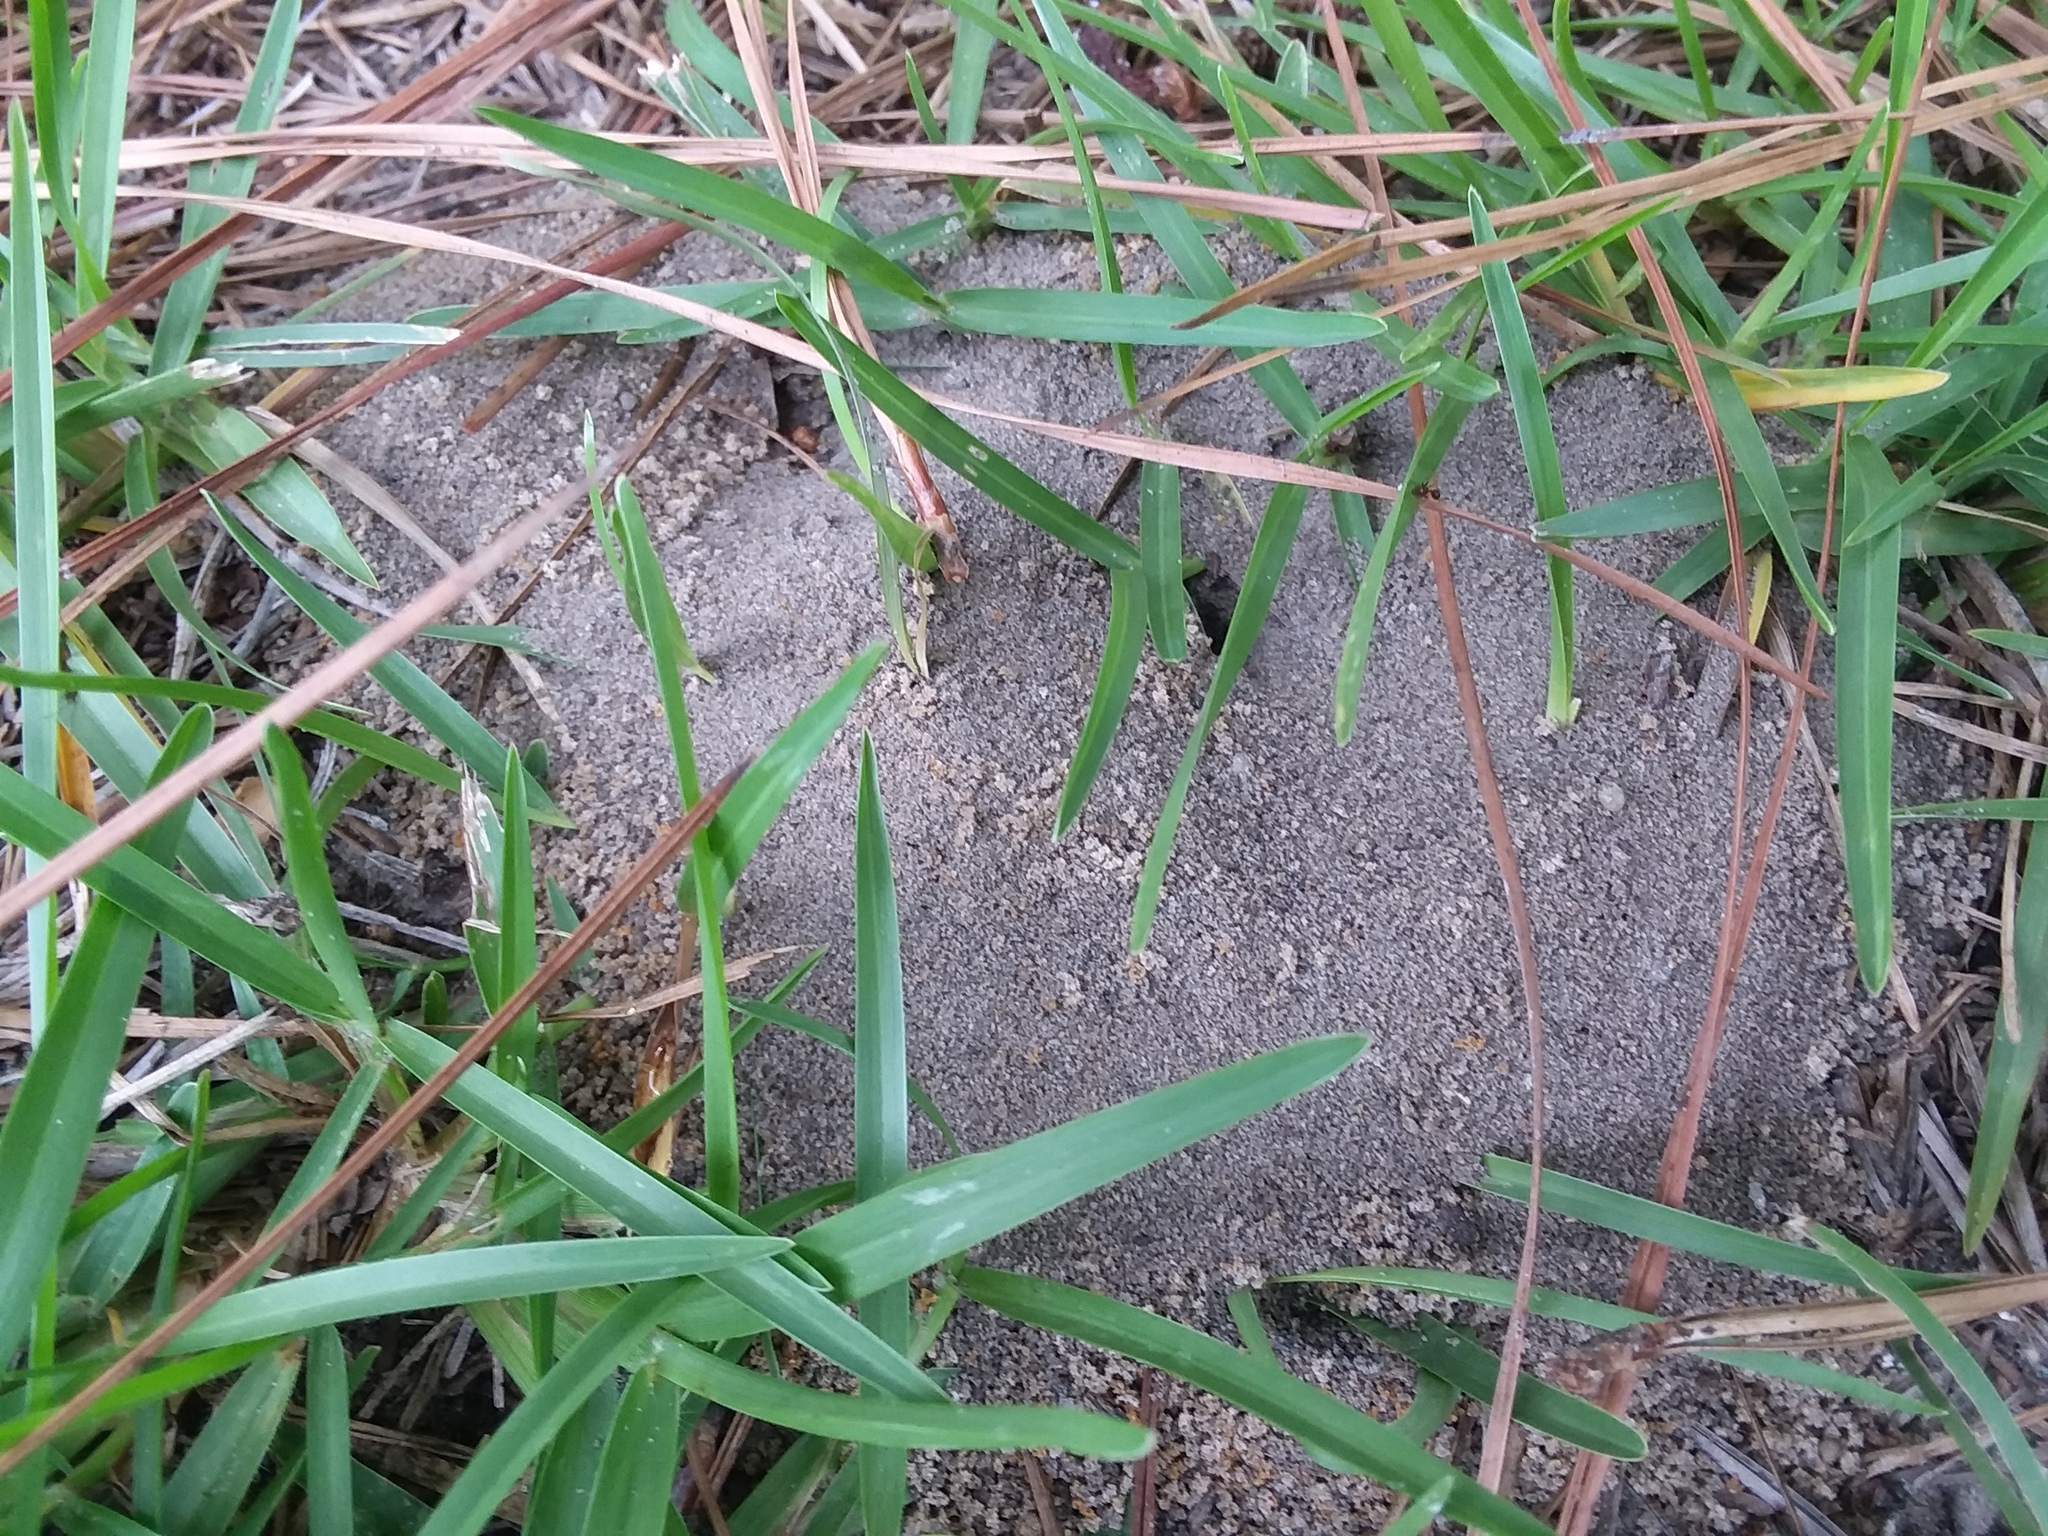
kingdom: Animalia
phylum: Arthropoda
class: Insecta
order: Hymenoptera
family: Formicidae
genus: Dorymyrmex
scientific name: Dorymyrmex bureni
